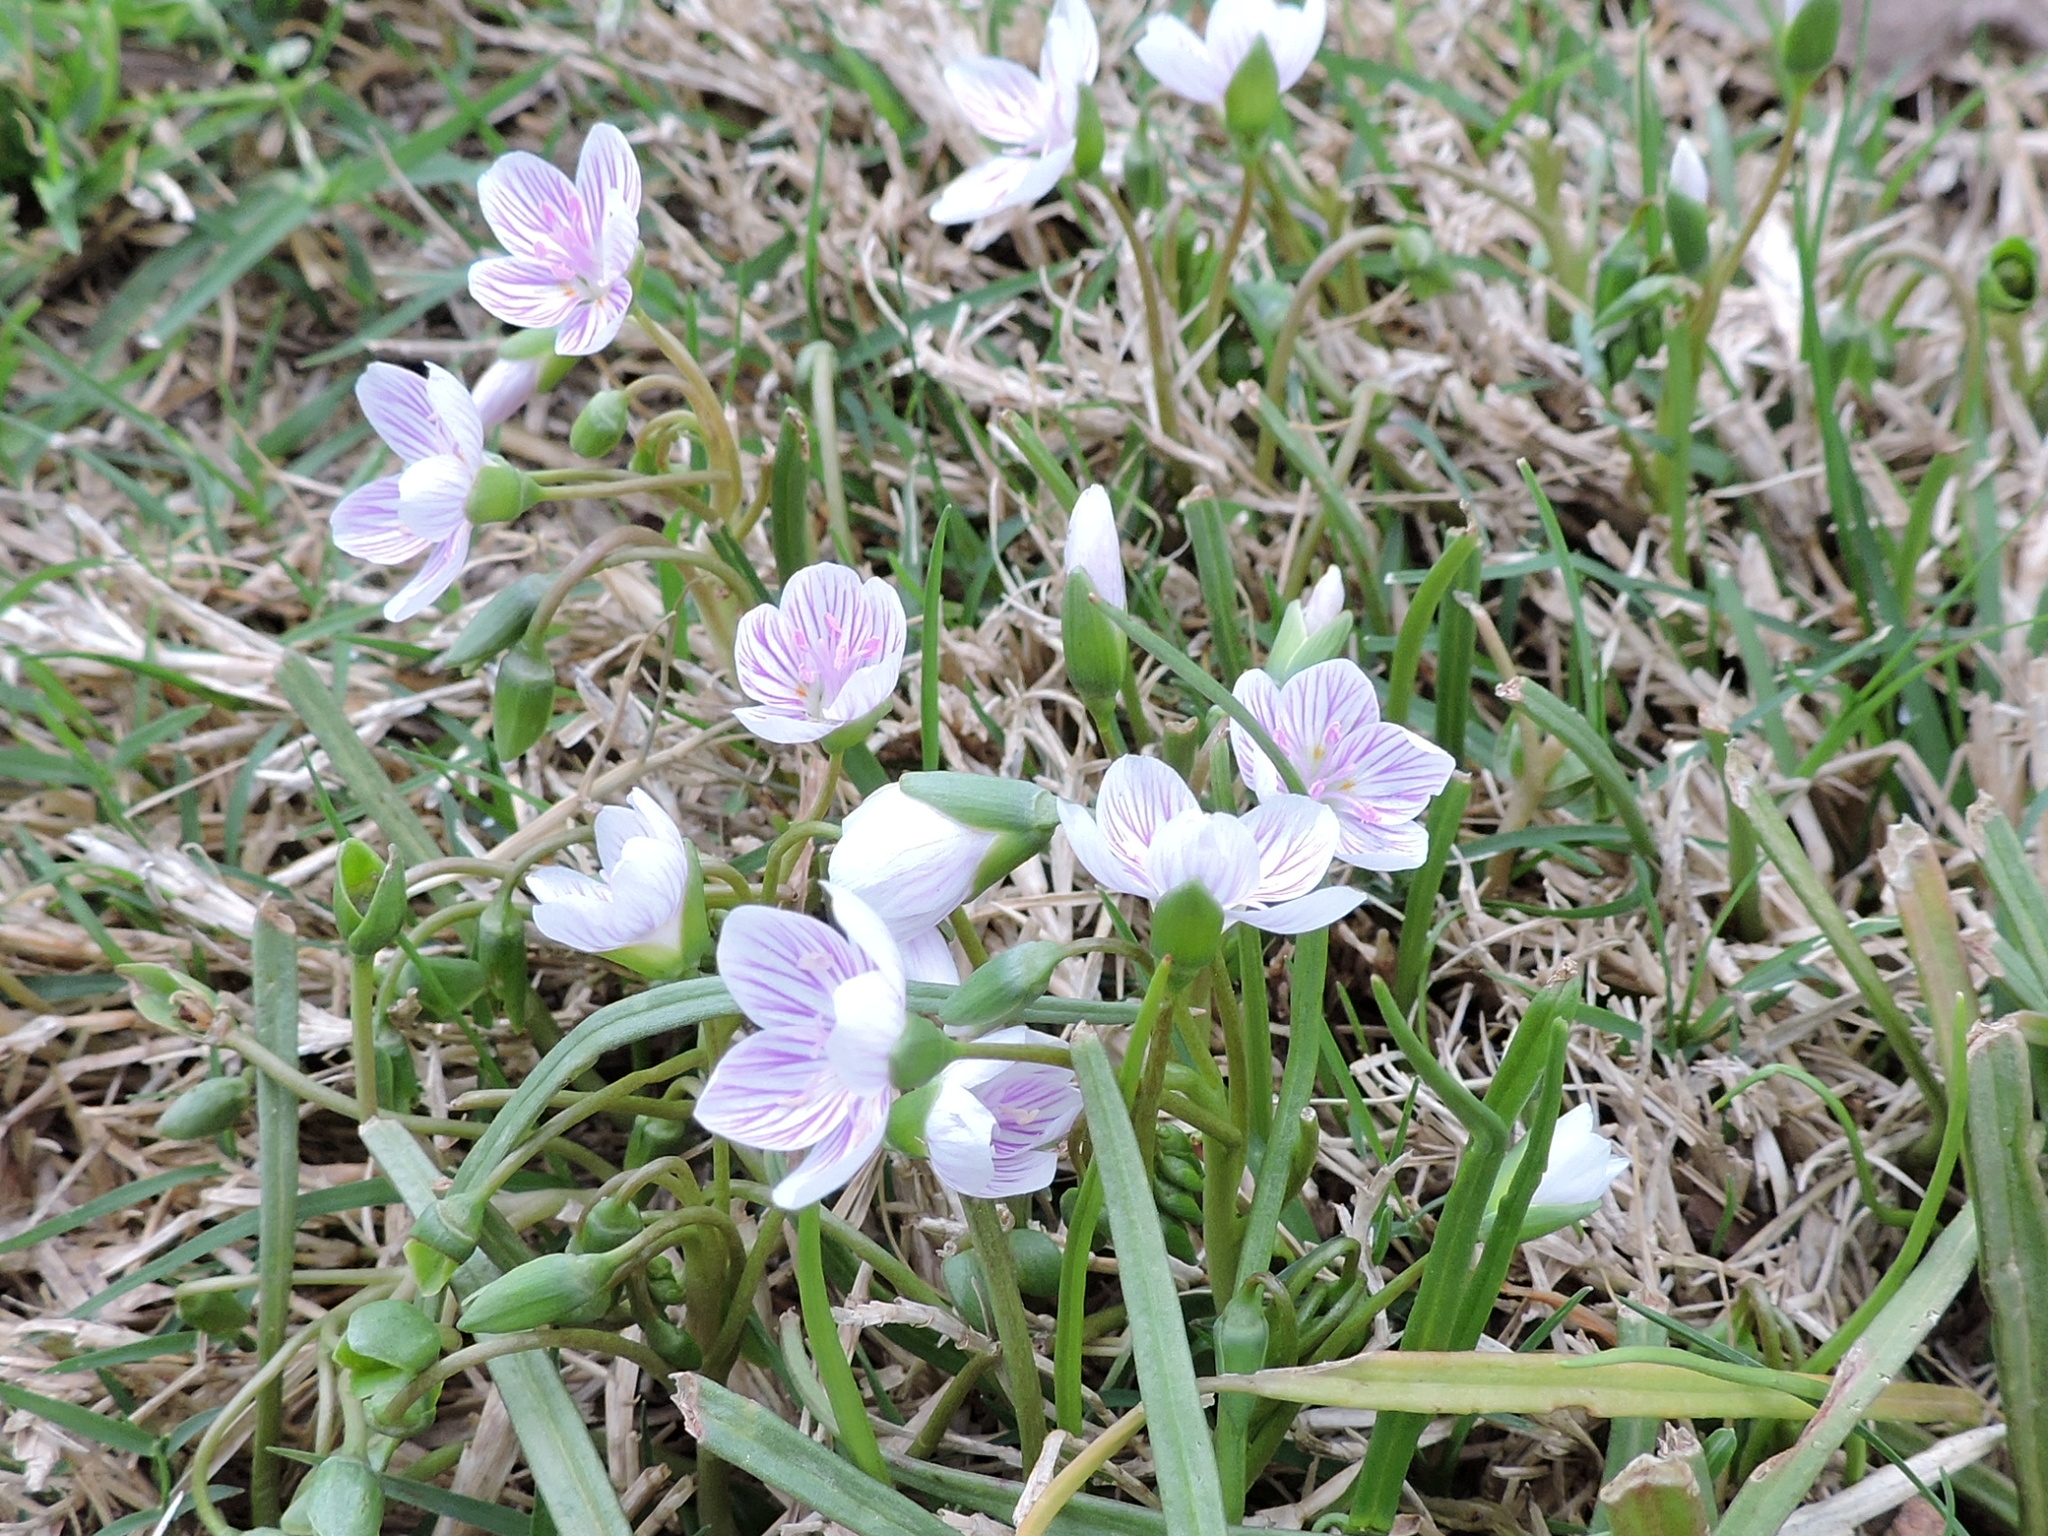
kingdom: Plantae
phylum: Tracheophyta
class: Magnoliopsida
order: Caryophyllales
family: Montiaceae
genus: Claytonia
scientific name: Claytonia virginica
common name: Virginia springbeauty
